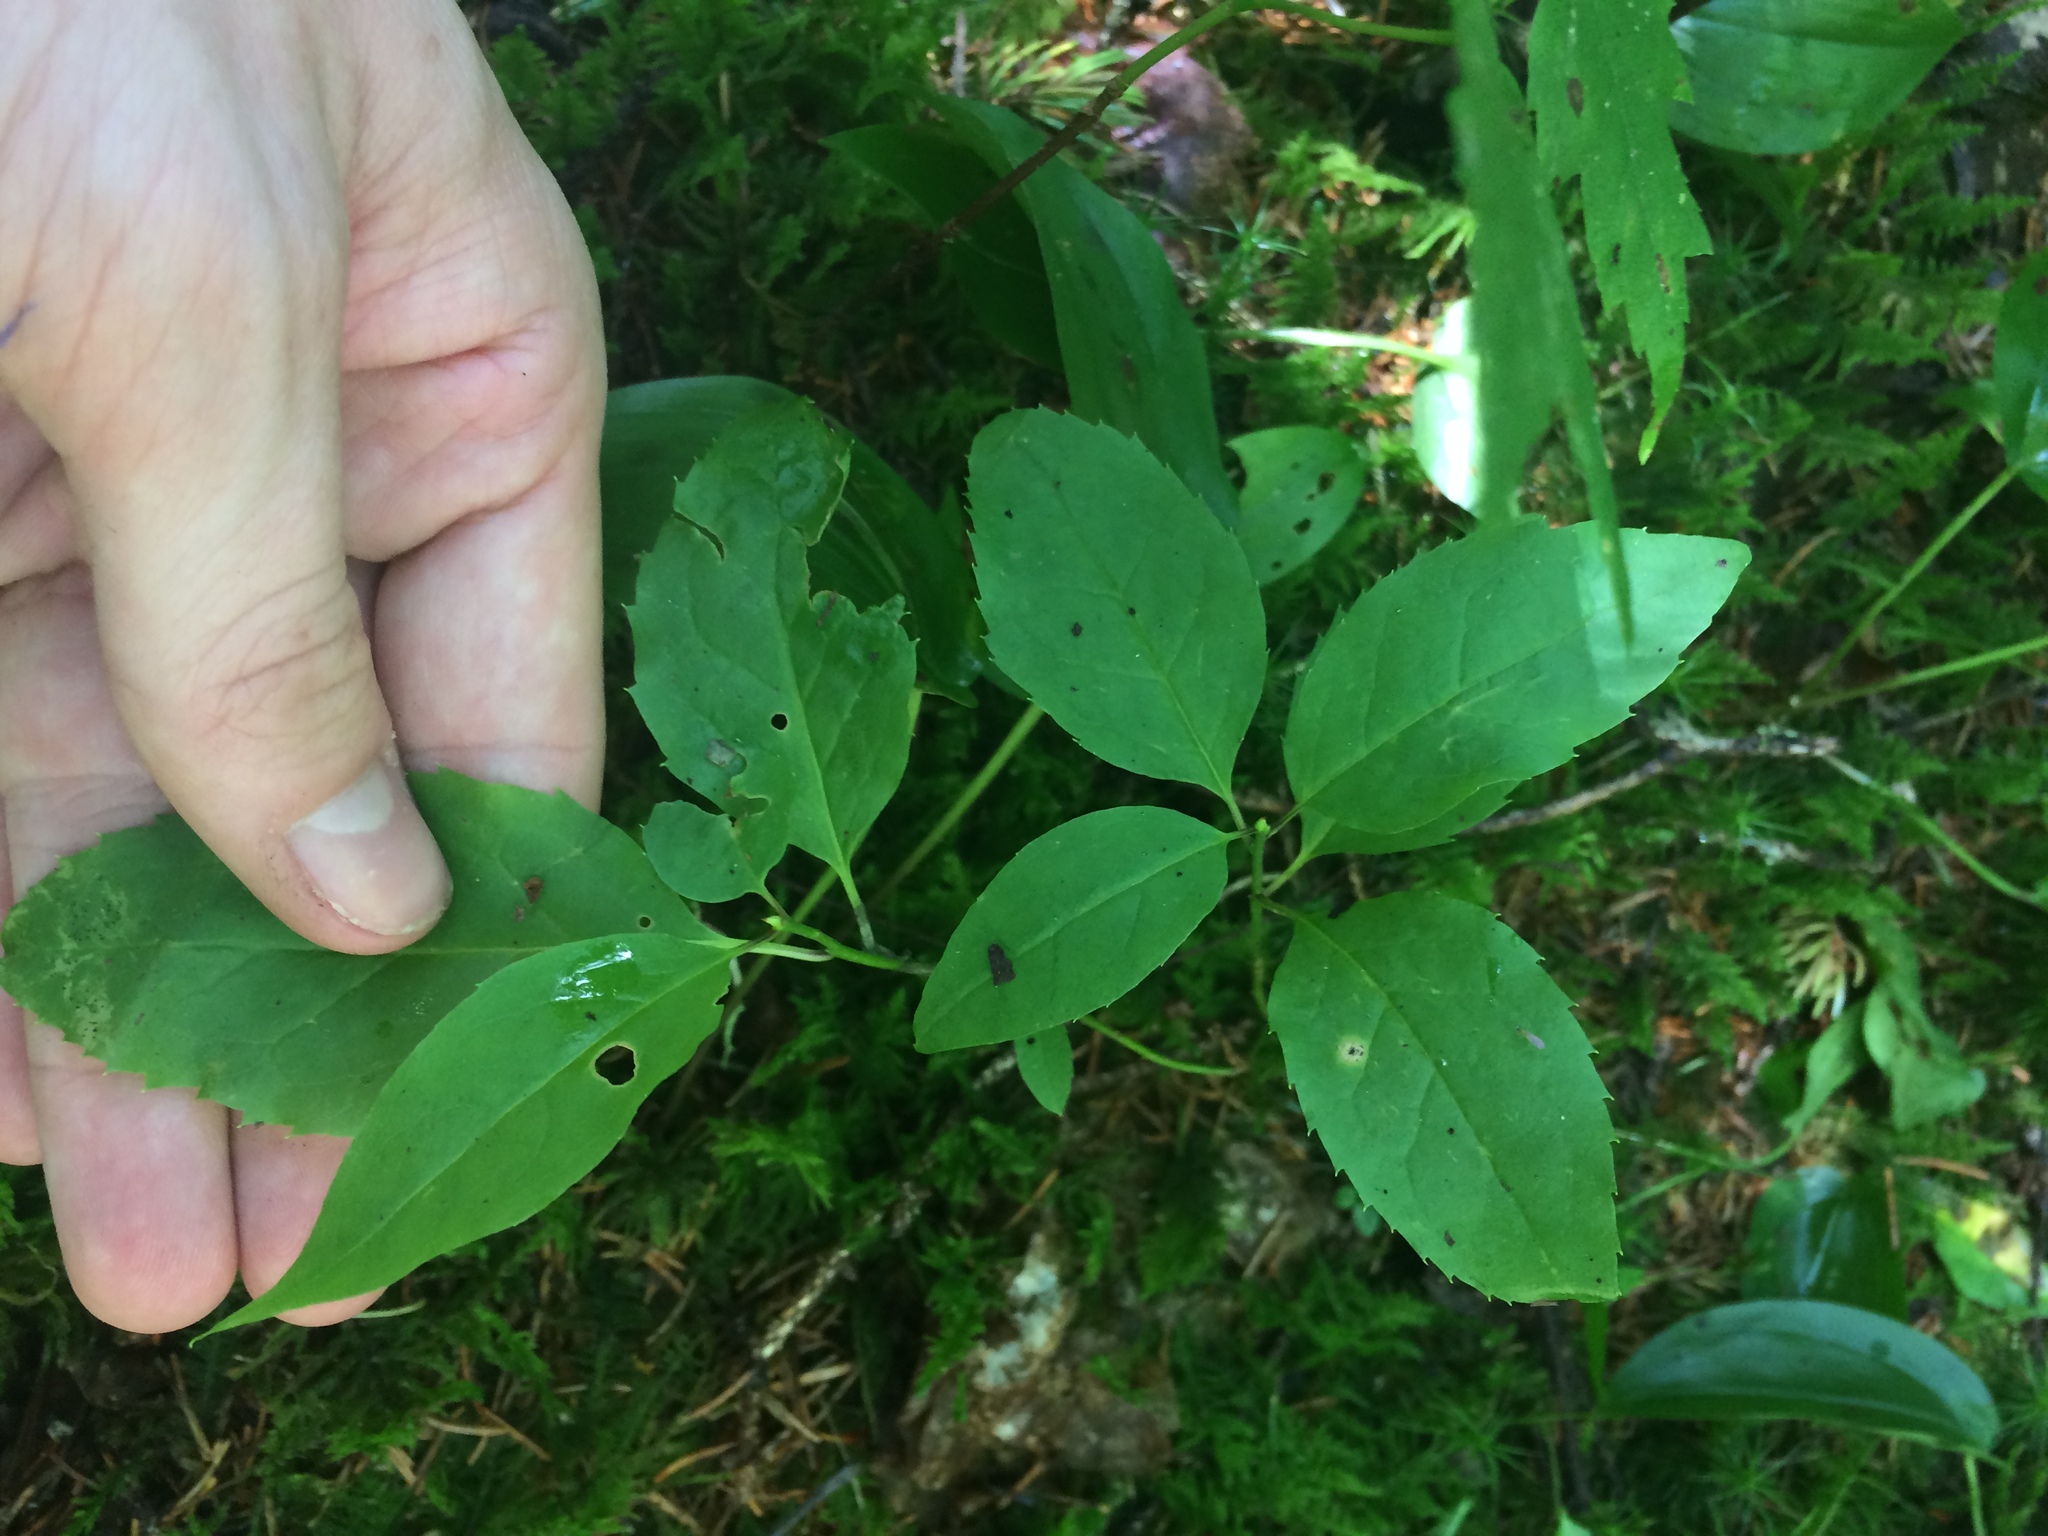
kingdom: Plantae
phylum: Tracheophyta
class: Magnoliopsida
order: Aquifoliales
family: Aquifoliaceae
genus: Ilex
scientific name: Ilex mucronata
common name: Catberry
